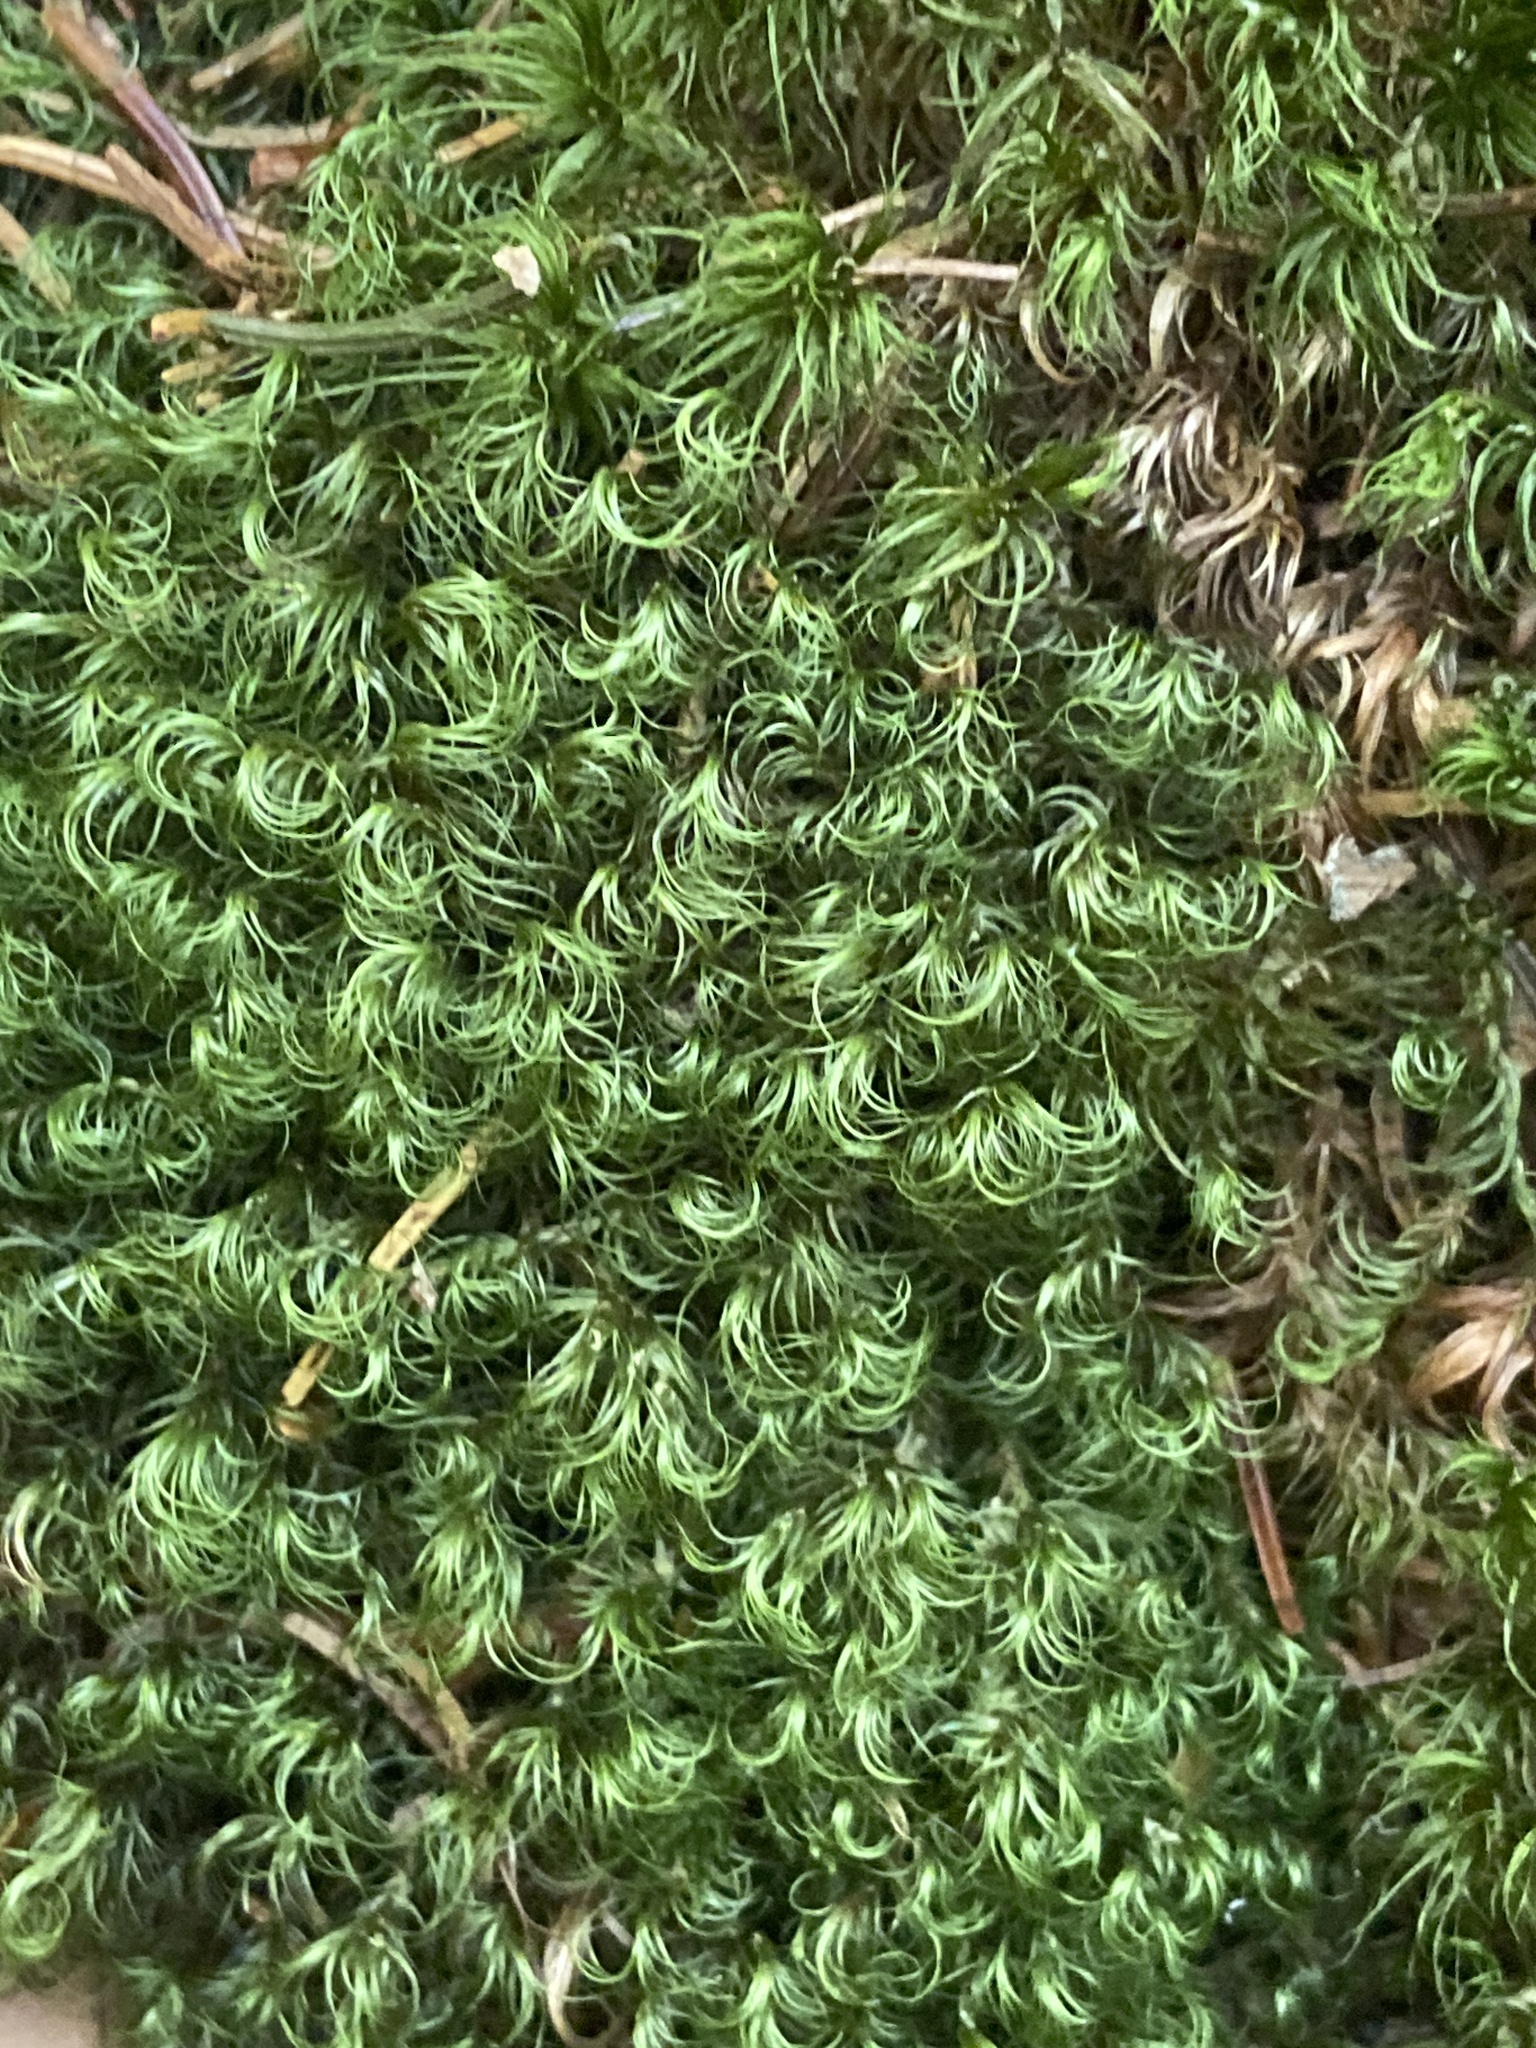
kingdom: Plantae
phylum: Bryophyta
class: Bryopsida
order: Dicranales
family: Dicranaceae
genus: Dicranum
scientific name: Dicranum scoparium
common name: Broom fork-moss
